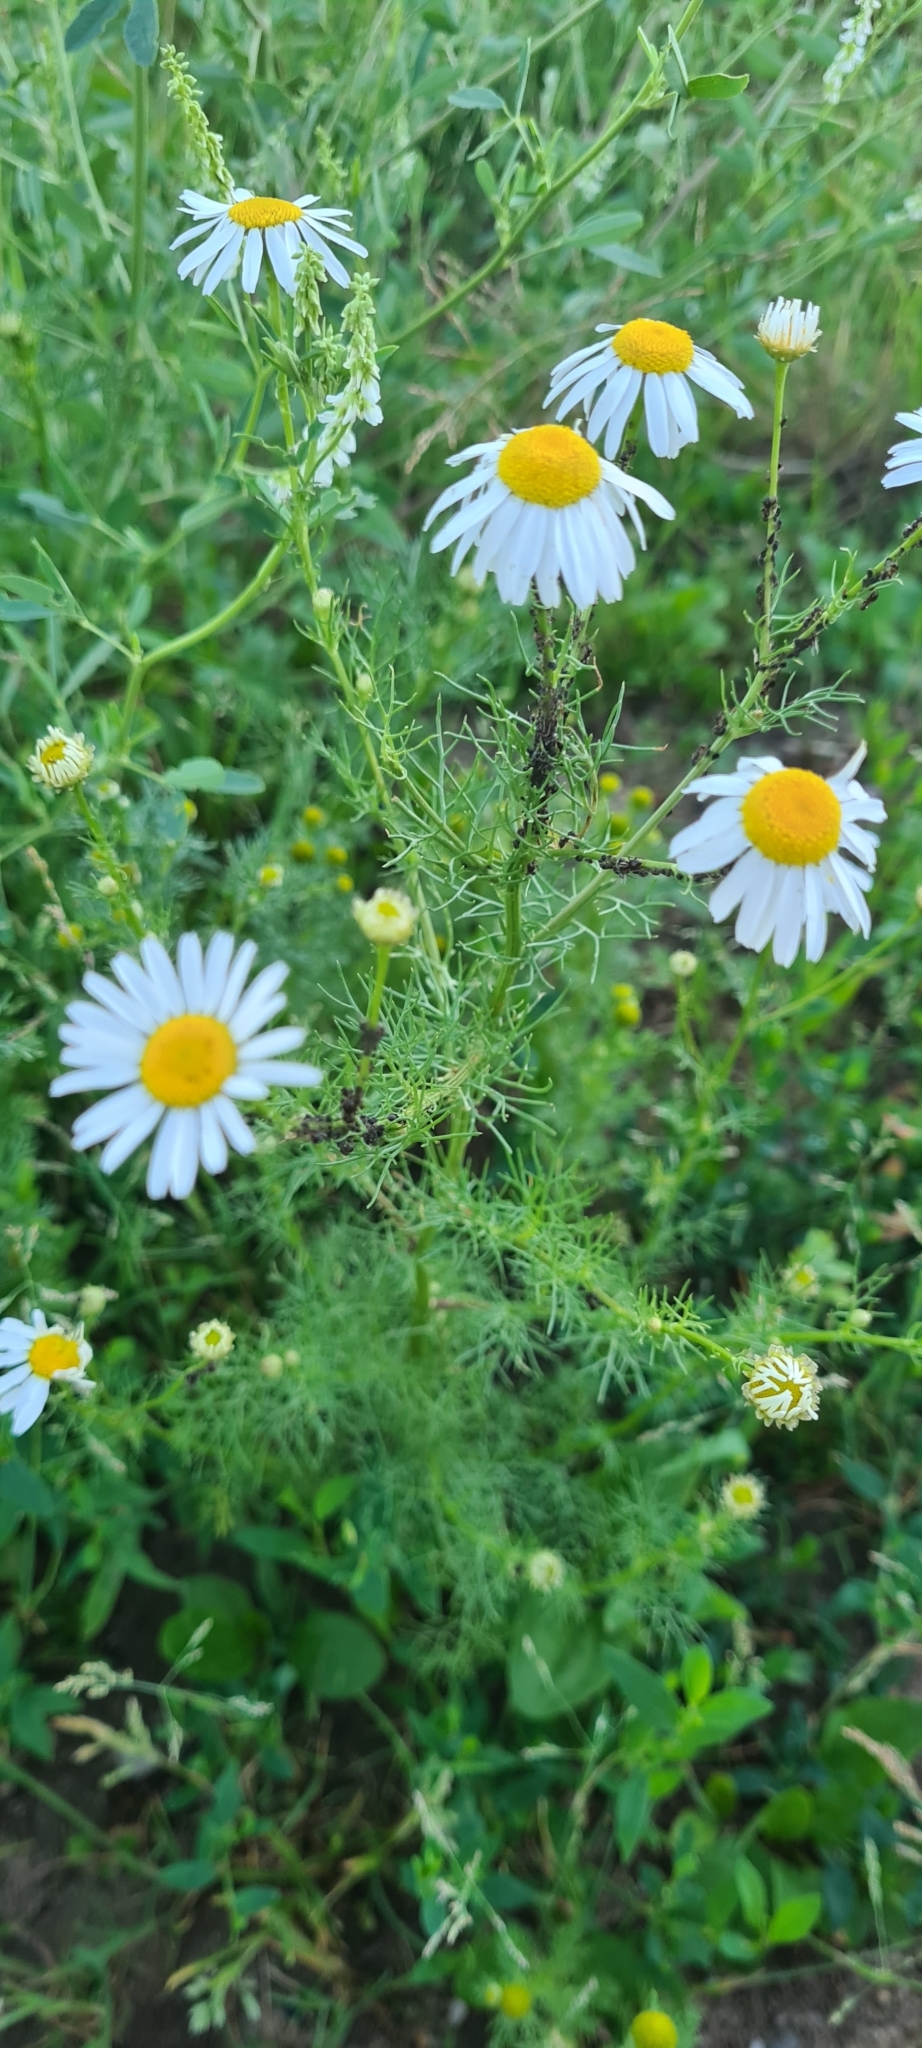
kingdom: Plantae
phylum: Tracheophyta
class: Magnoliopsida
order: Asterales
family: Asteraceae
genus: Tripleurospermum
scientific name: Tripleurospermum inodorum
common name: Scentless mayweed
